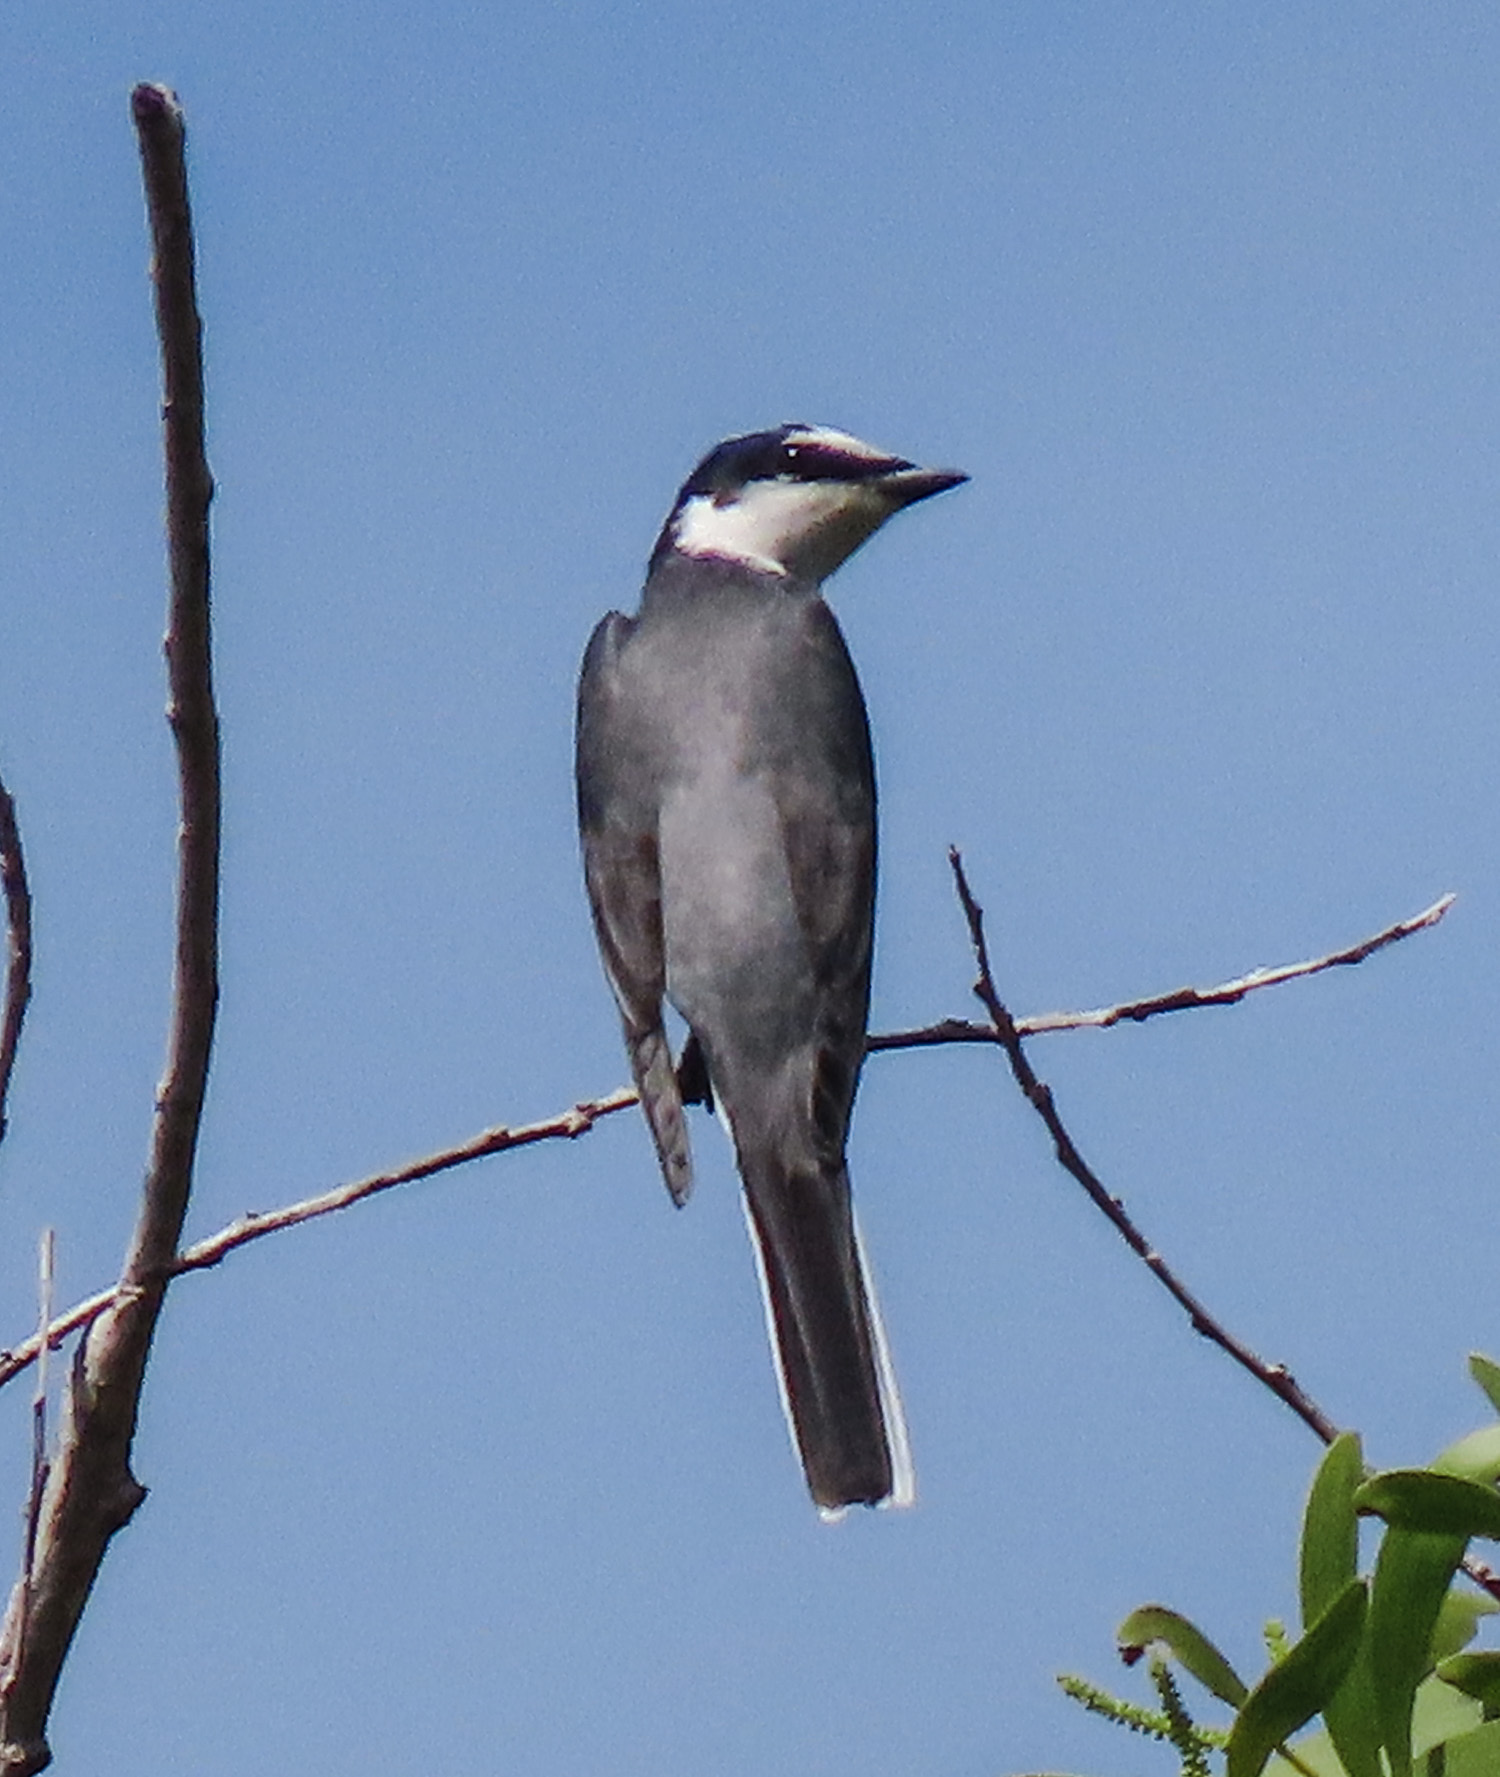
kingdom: Animalia
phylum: Chordata
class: Aves
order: Passeriformes
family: Campephagidae
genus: Pericrocotus
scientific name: Pericrocotus divaricatus
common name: Ashy minivet
